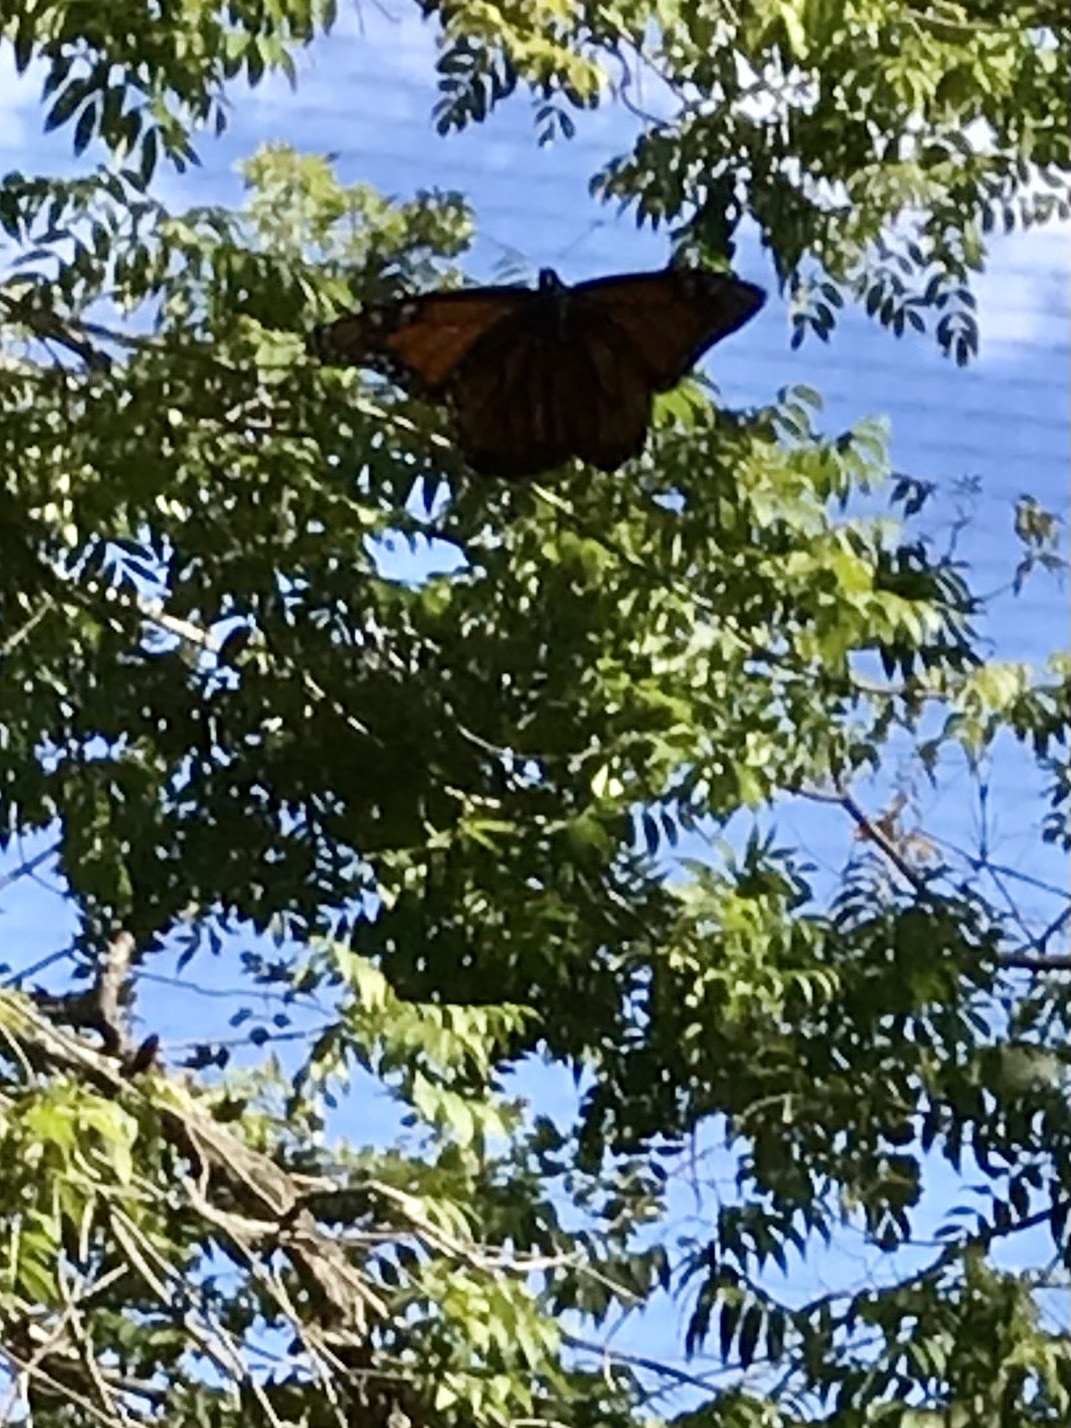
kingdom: Animalia
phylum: Arthropoda
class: Insecta
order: Lepidoptera
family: Nymphalidae
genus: Danaus
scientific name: Danaus plexippus
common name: Monarch
